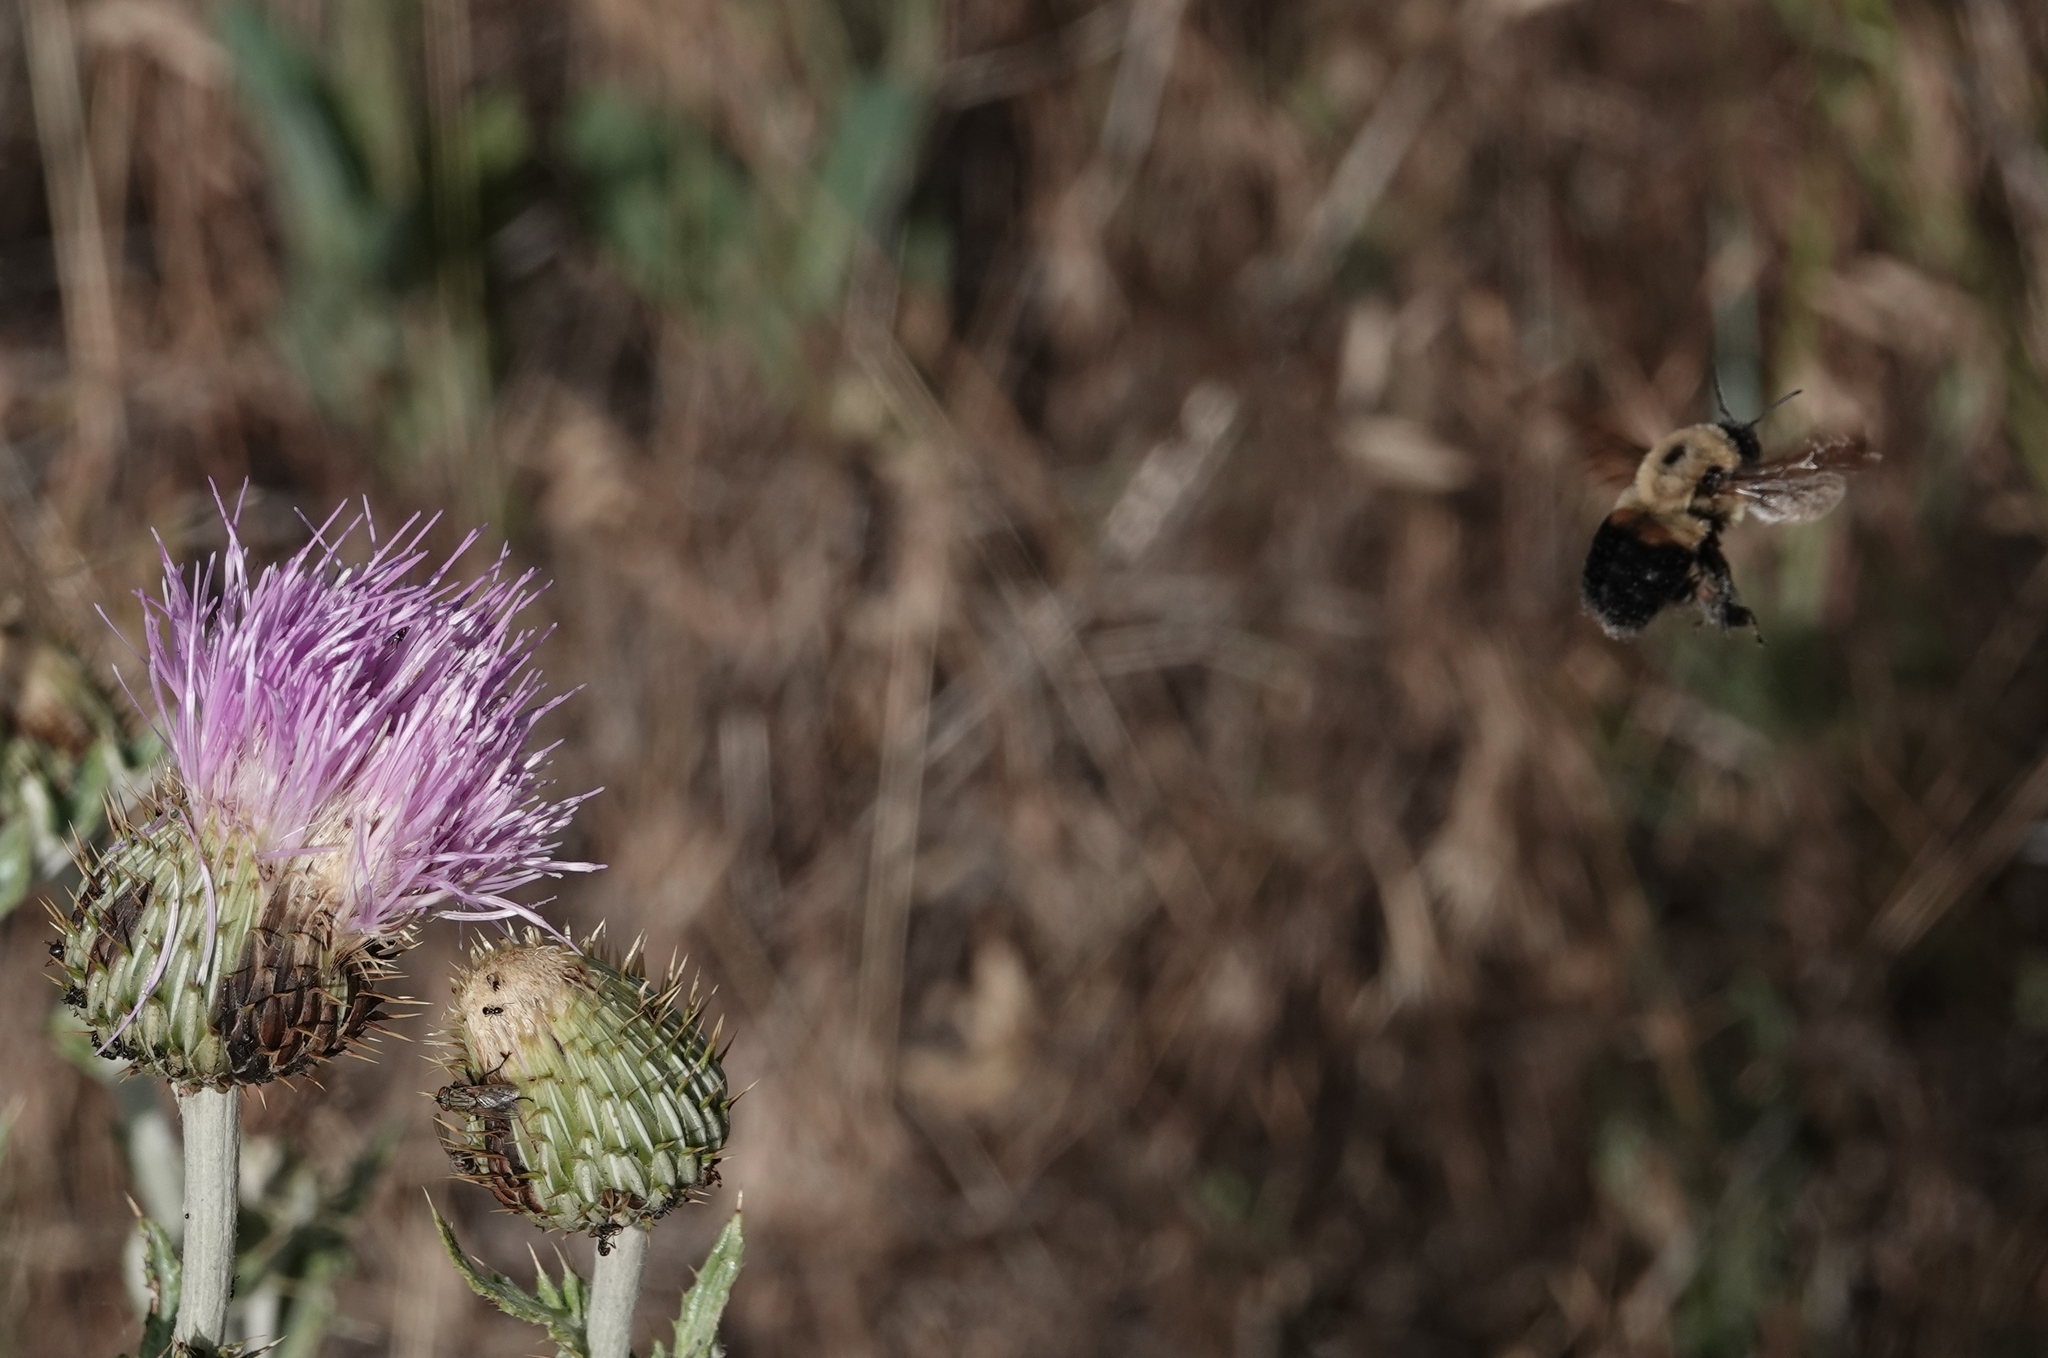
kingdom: Animalia
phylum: Arthropoda
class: Insecta
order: Hymenoptera
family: Apidae
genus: Bombus
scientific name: Bombus griseocollis
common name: Brown-belted bumble bee
